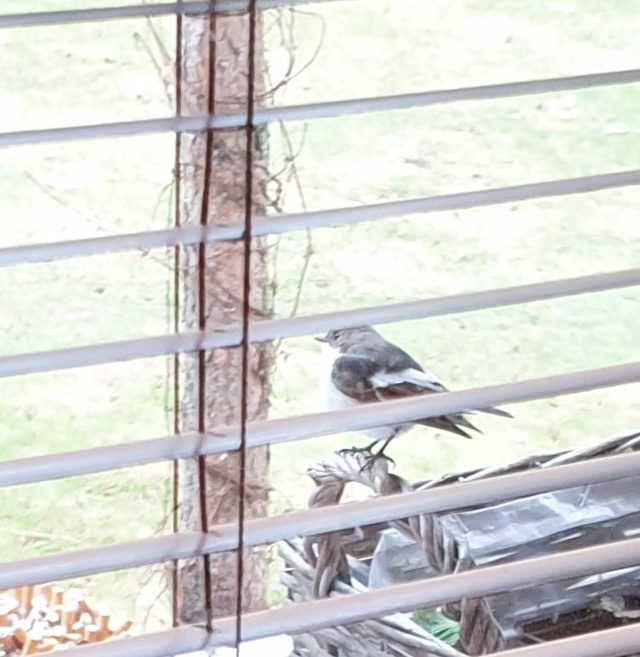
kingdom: Animalia
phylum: Chordata
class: Aves
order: Passeriformes
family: Muscicapidae
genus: Ficedula
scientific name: Ficedula hypoleuca
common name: European pied flycatcher
